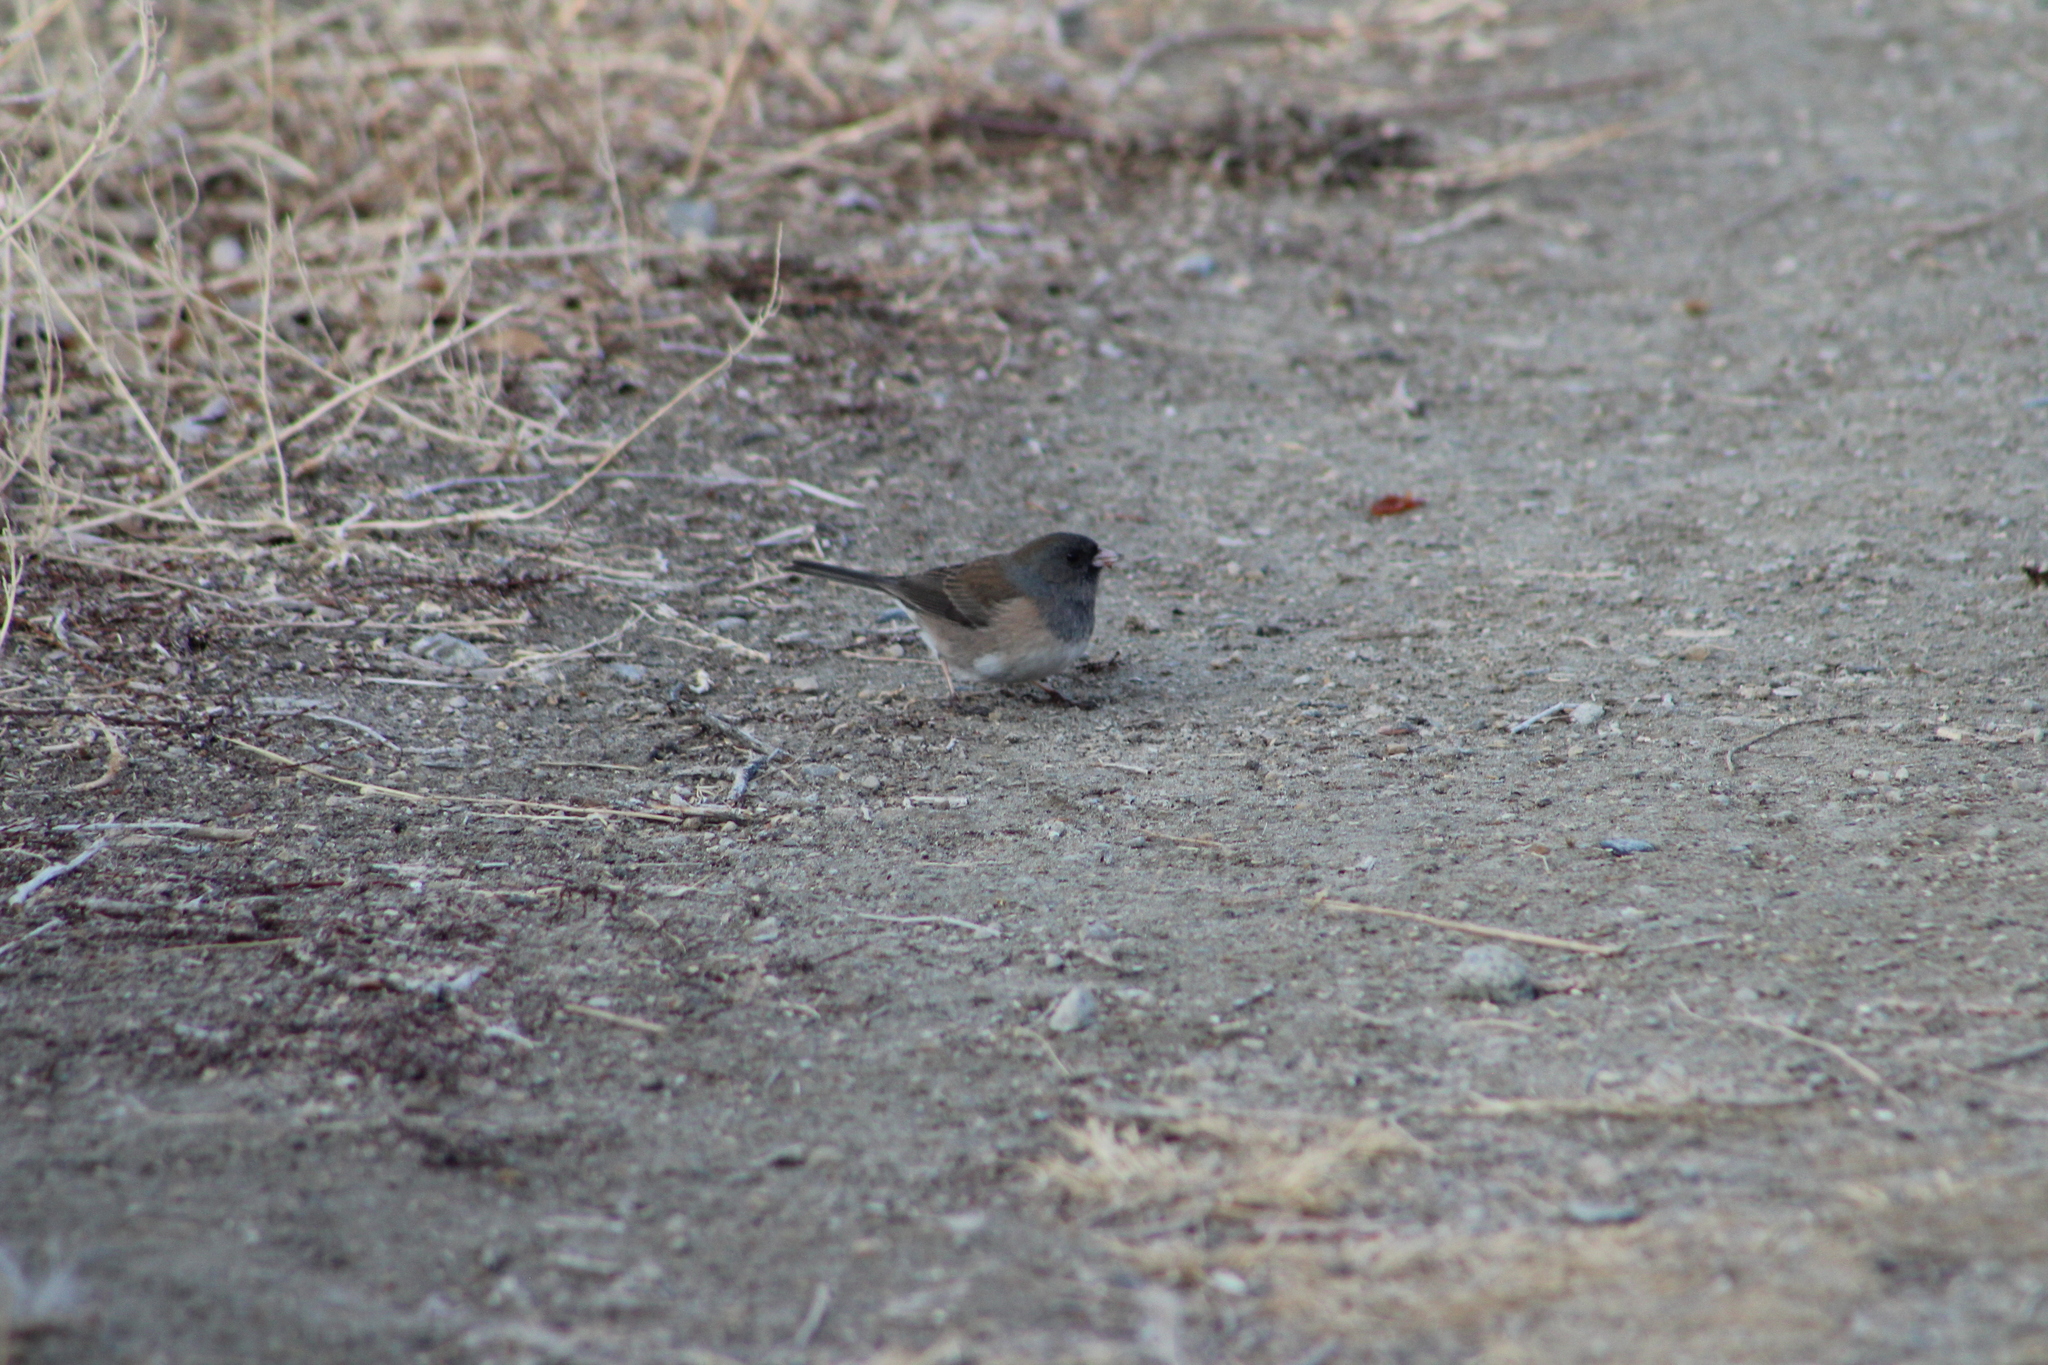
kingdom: Animalia
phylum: Chordata
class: Aves
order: Passeriformes
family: Passerellidae
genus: Junco
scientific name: Junco hyemalis
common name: Dark-eyed junco
